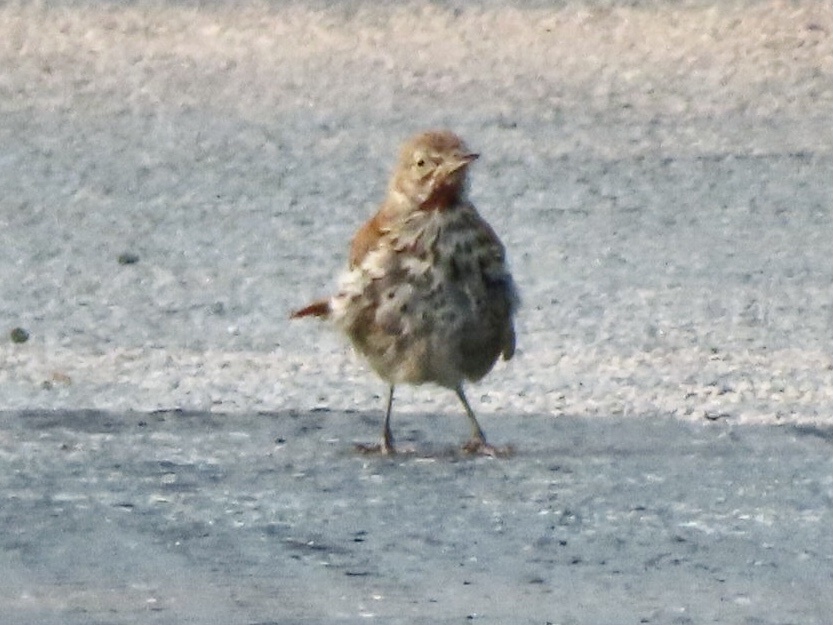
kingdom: Animalia
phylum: Chordata
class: Aves
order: Passeriformes
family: Mimidae
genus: Toxostoma
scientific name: Toxostoma rufum
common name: Brown thrasher
